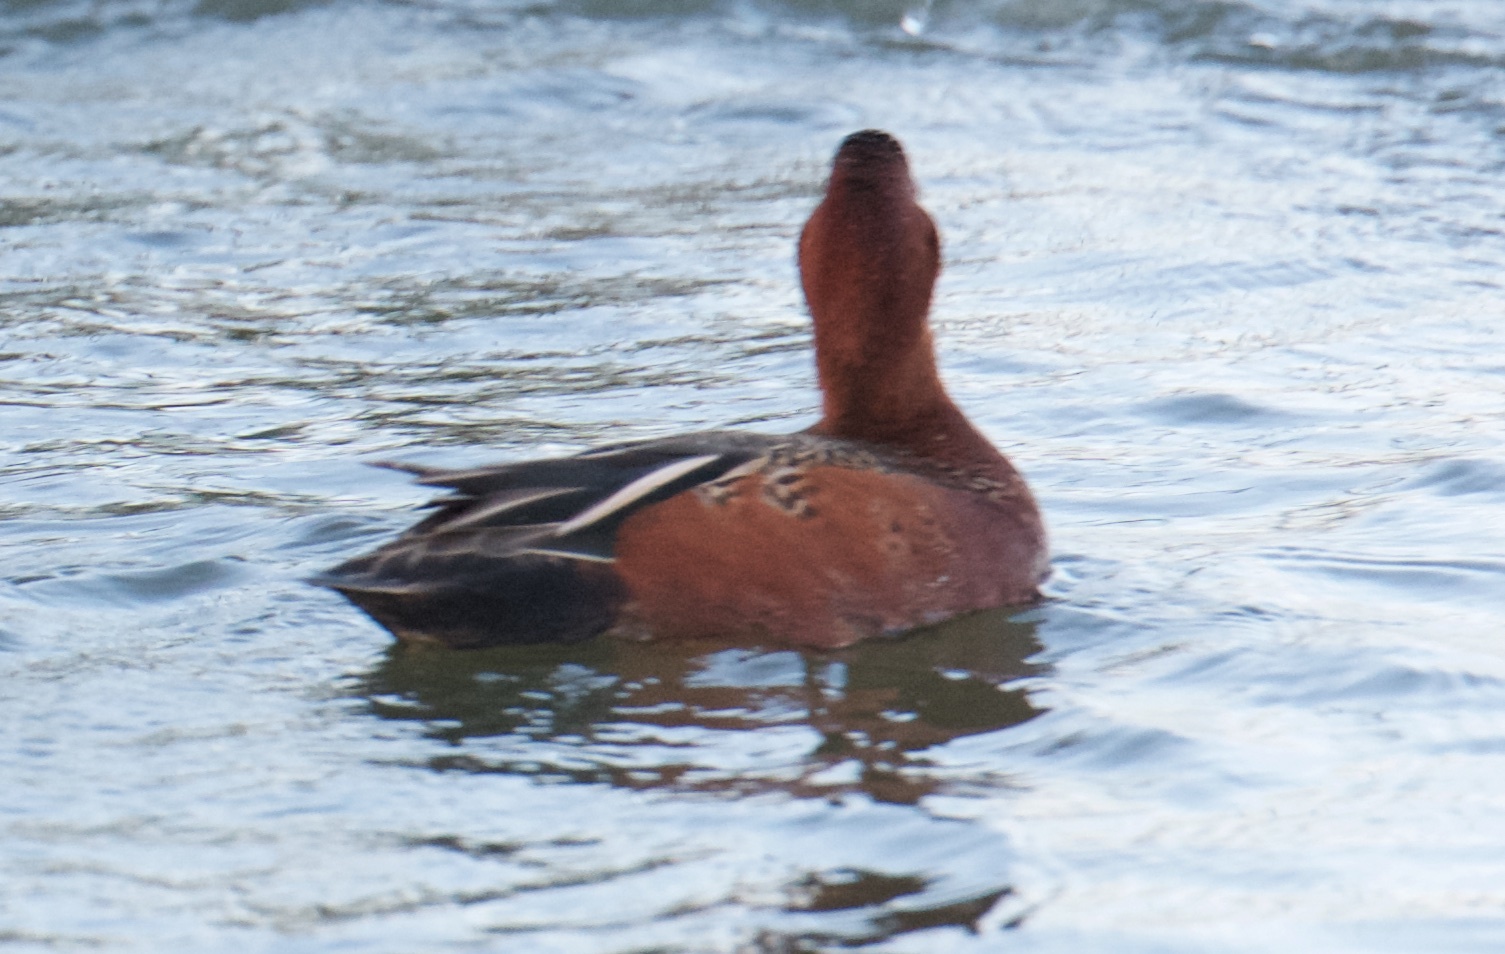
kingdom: Animalia
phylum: Chordata
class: Aves
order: Anseriformes
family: Anatidae
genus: Spatula
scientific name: Spatula cyanoptera
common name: Cinnamon teal
